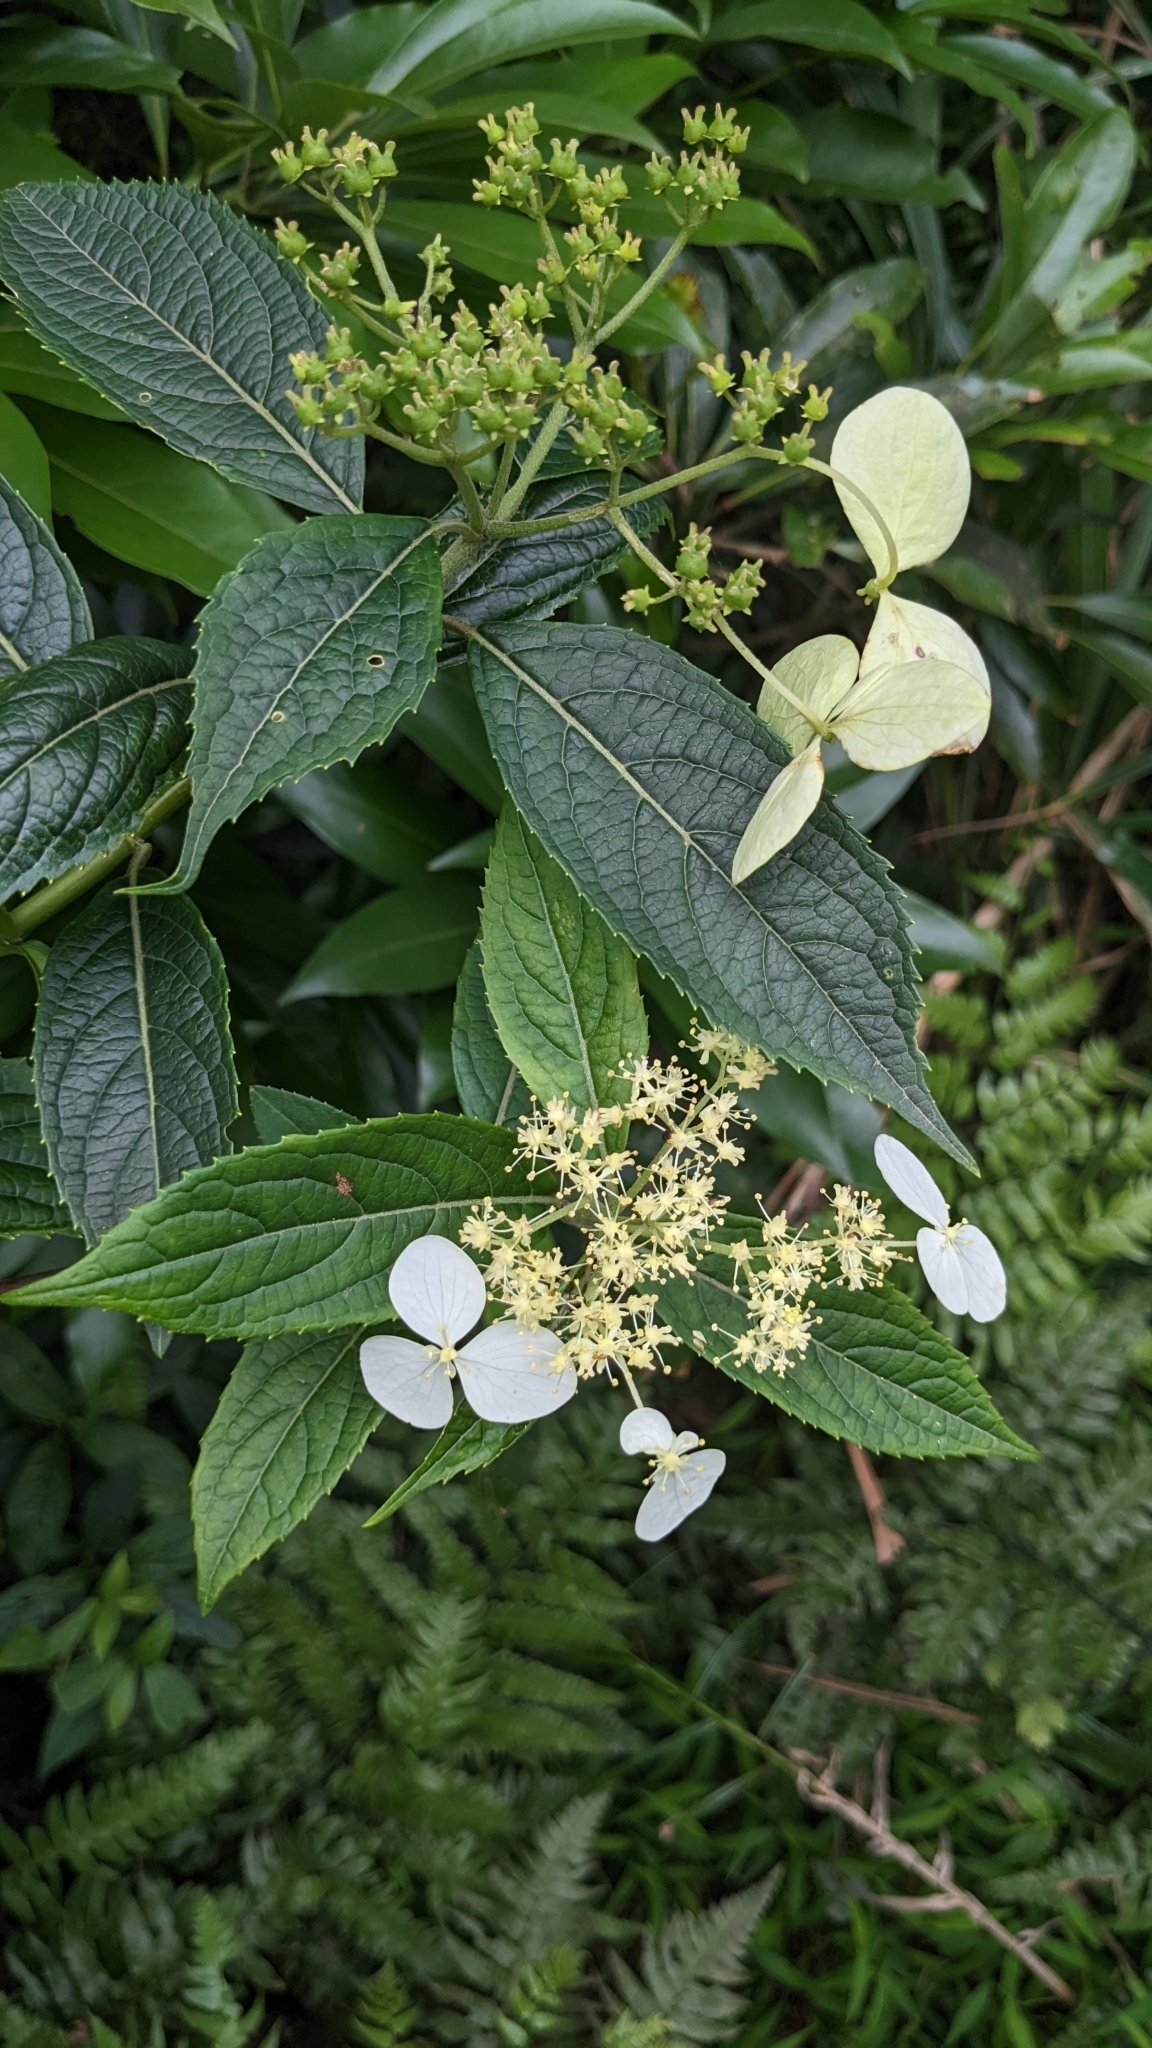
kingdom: Plantae
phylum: Tracheophyta
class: Magnoliopsida
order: Cornales
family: Hydrangeaceae
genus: Hydrangea
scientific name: Hydrangea chinensis
